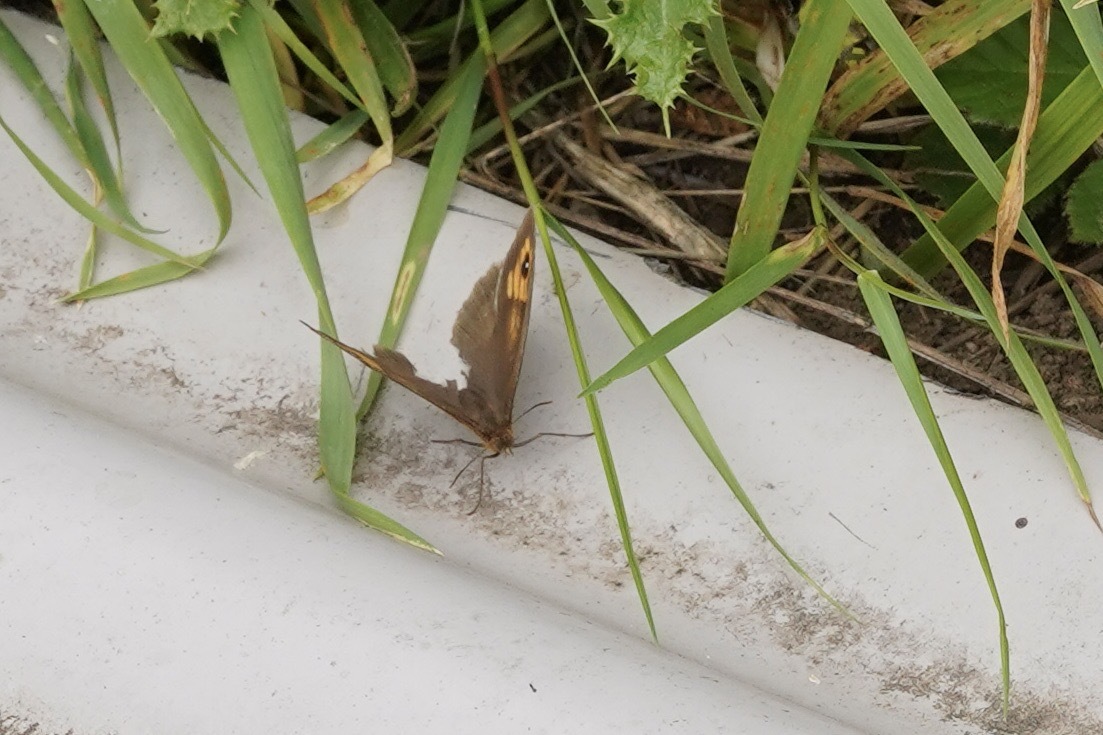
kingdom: Animalia
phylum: Arthropoda
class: Insecta
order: Lepidoptera
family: Nymphalidae
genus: Maniola
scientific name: Maniola jurtina
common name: Meadow brown
